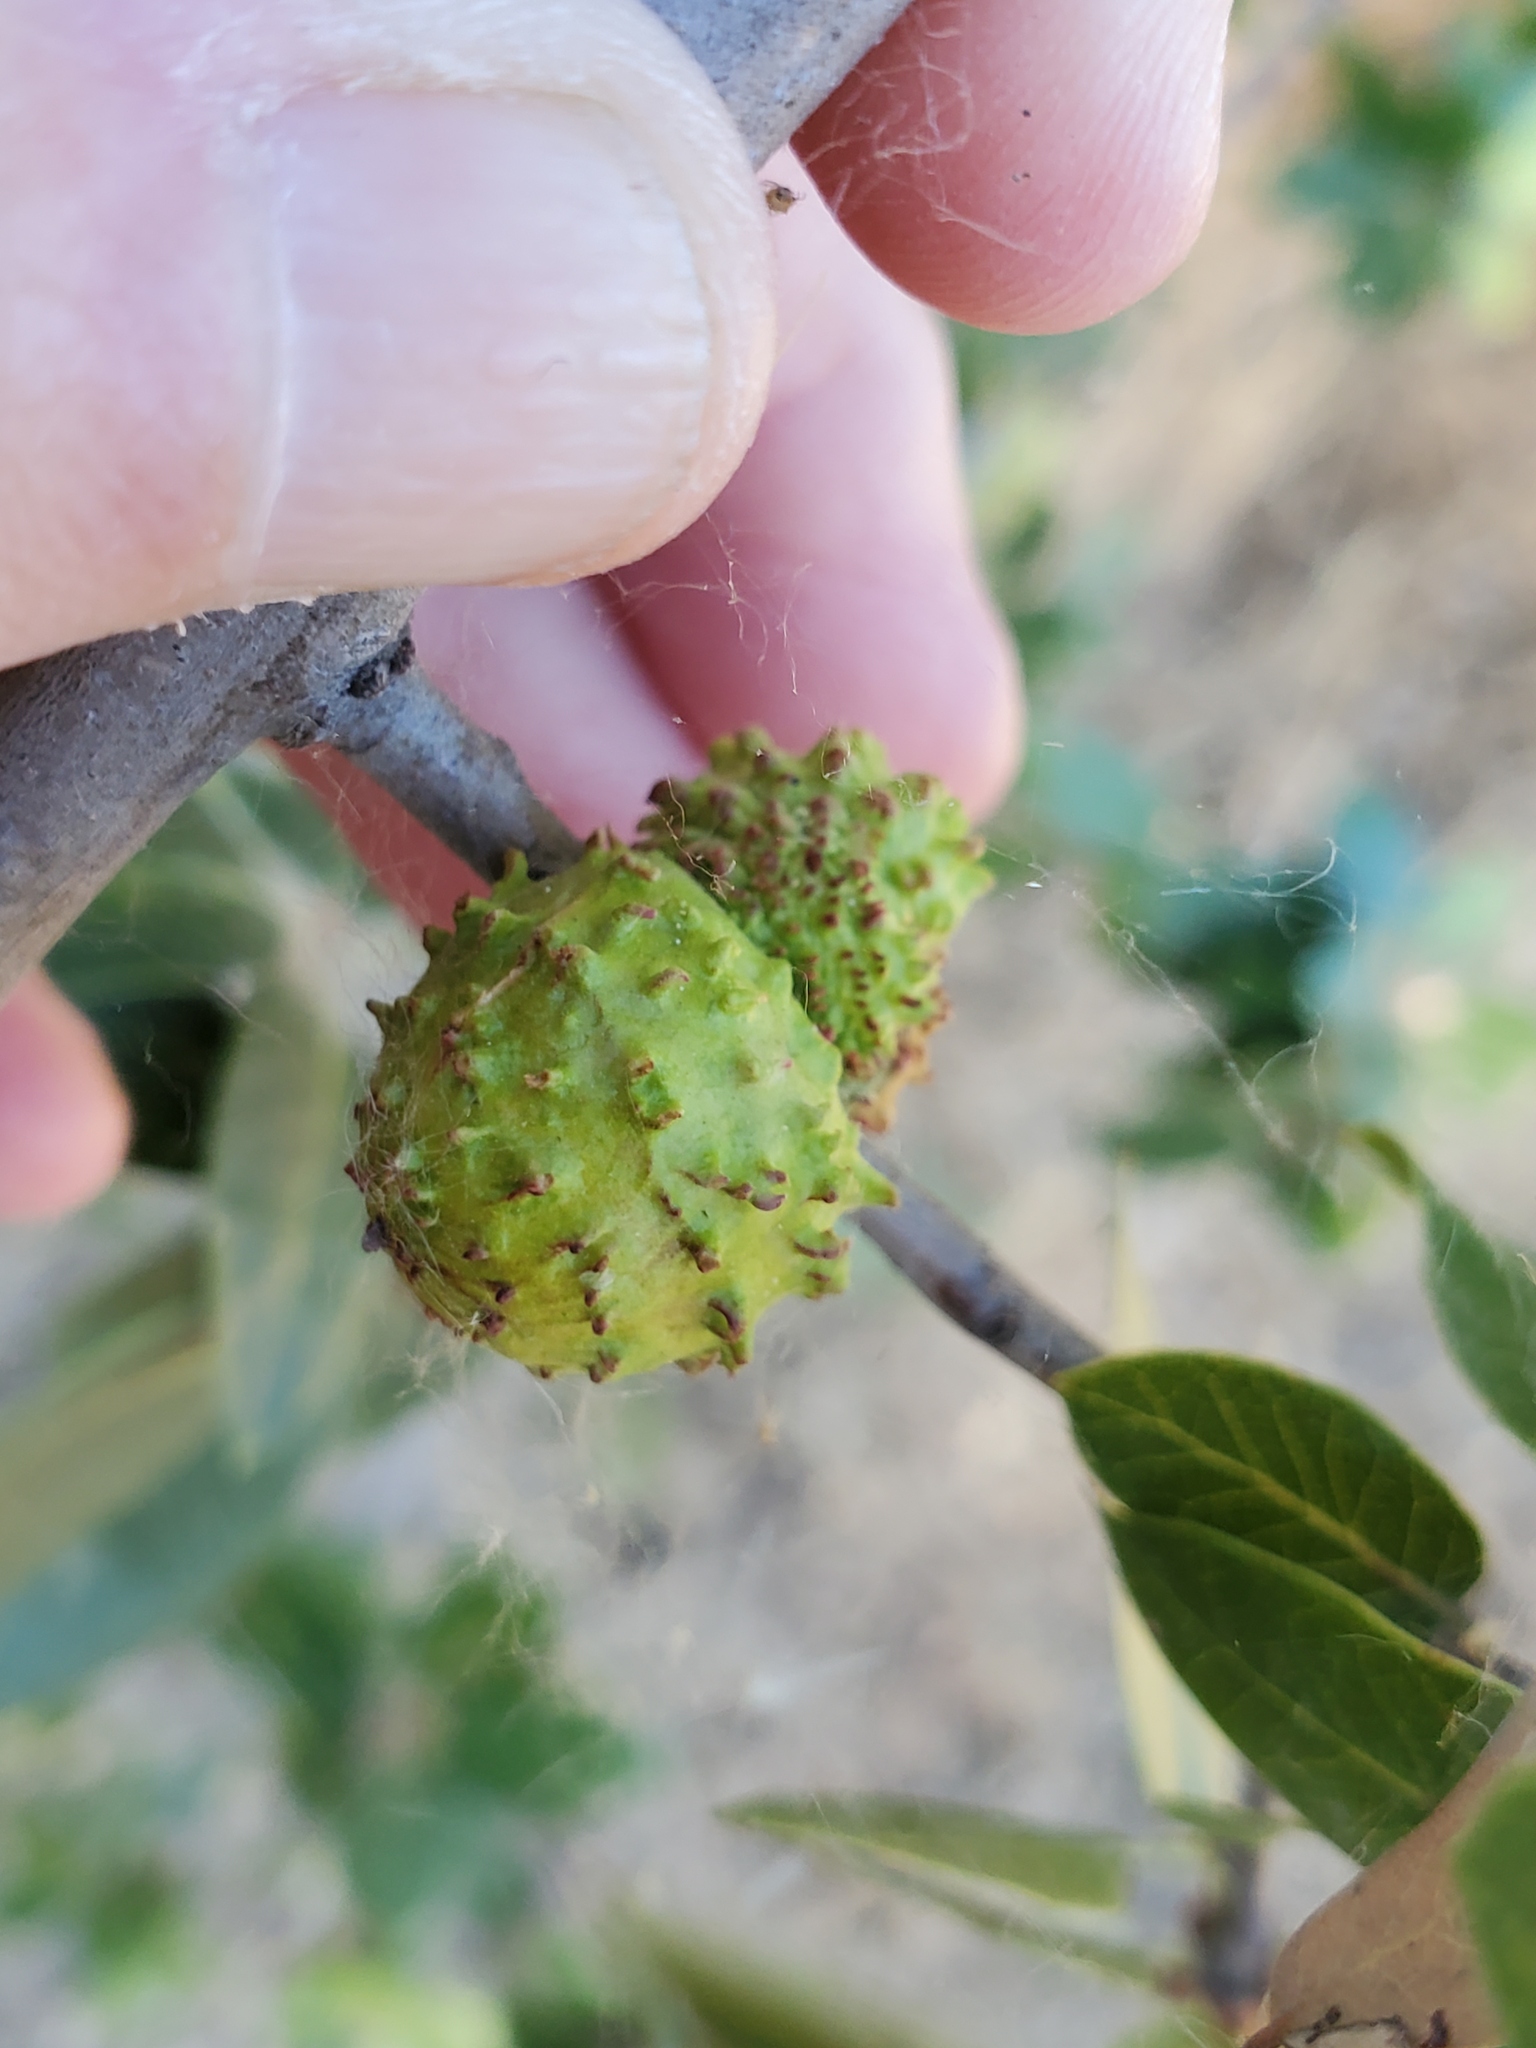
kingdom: Animalia
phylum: Arthropoda
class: Insecta
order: Hymenoptera
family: Cynipidae
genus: Amphibolips
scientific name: Amphibolips quercuspomiformis
